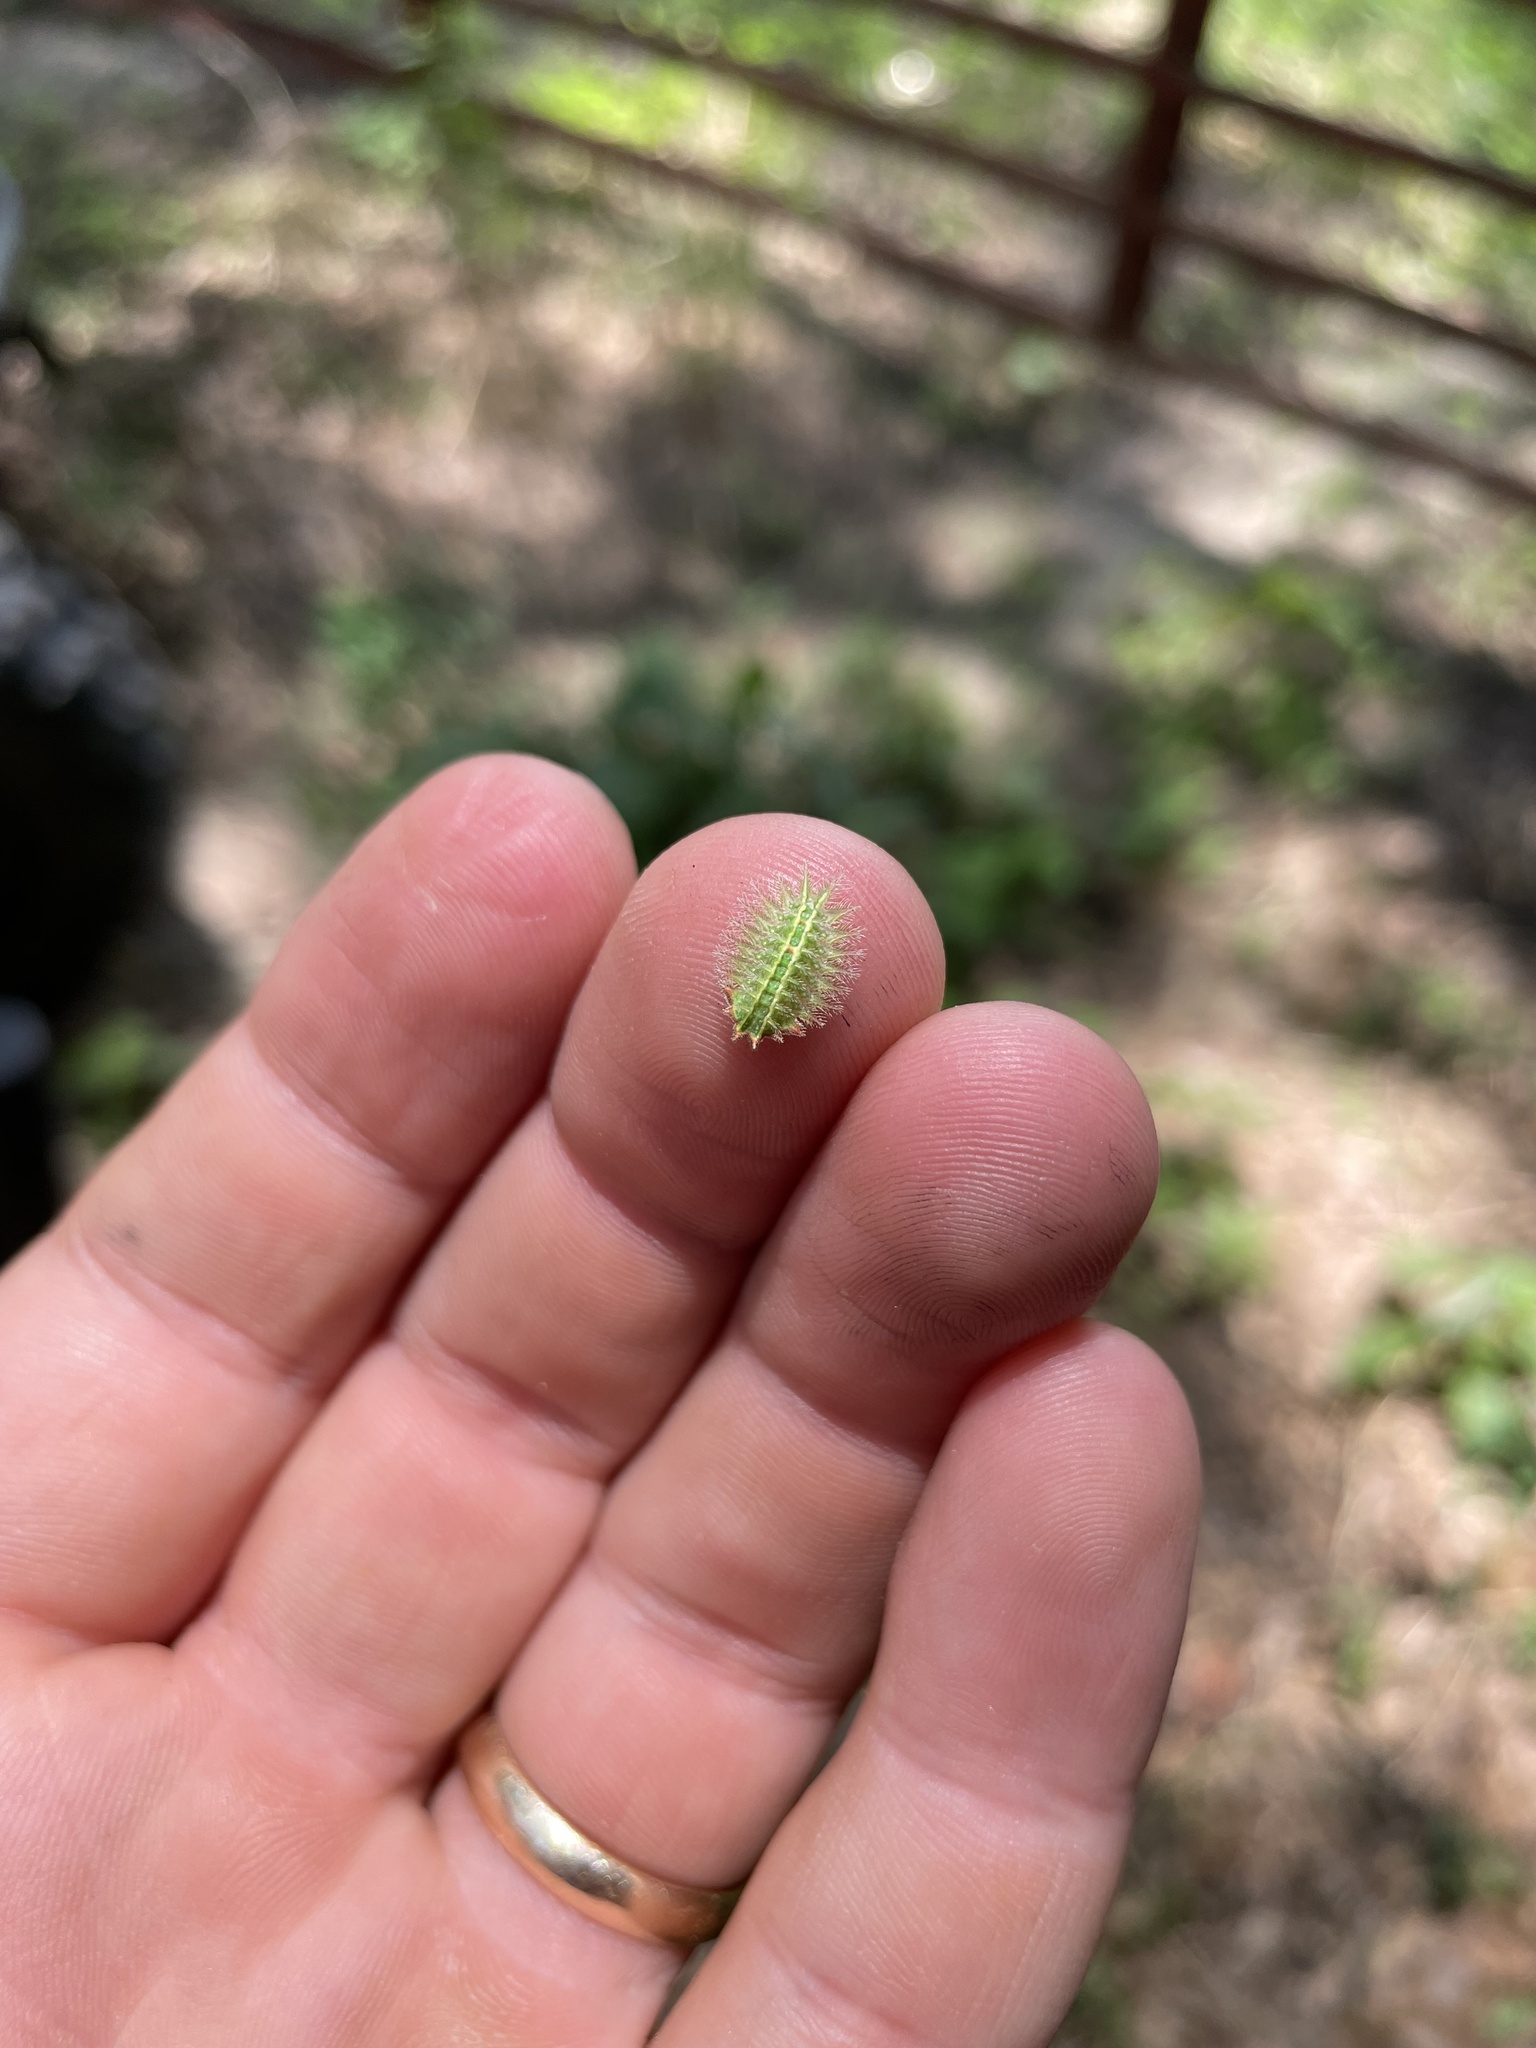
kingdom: Animalia
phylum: Arthropoda
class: Insecta
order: Lepidoptera
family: Limacodidae
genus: Isa
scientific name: Isa textula
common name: Crowned slug moth
